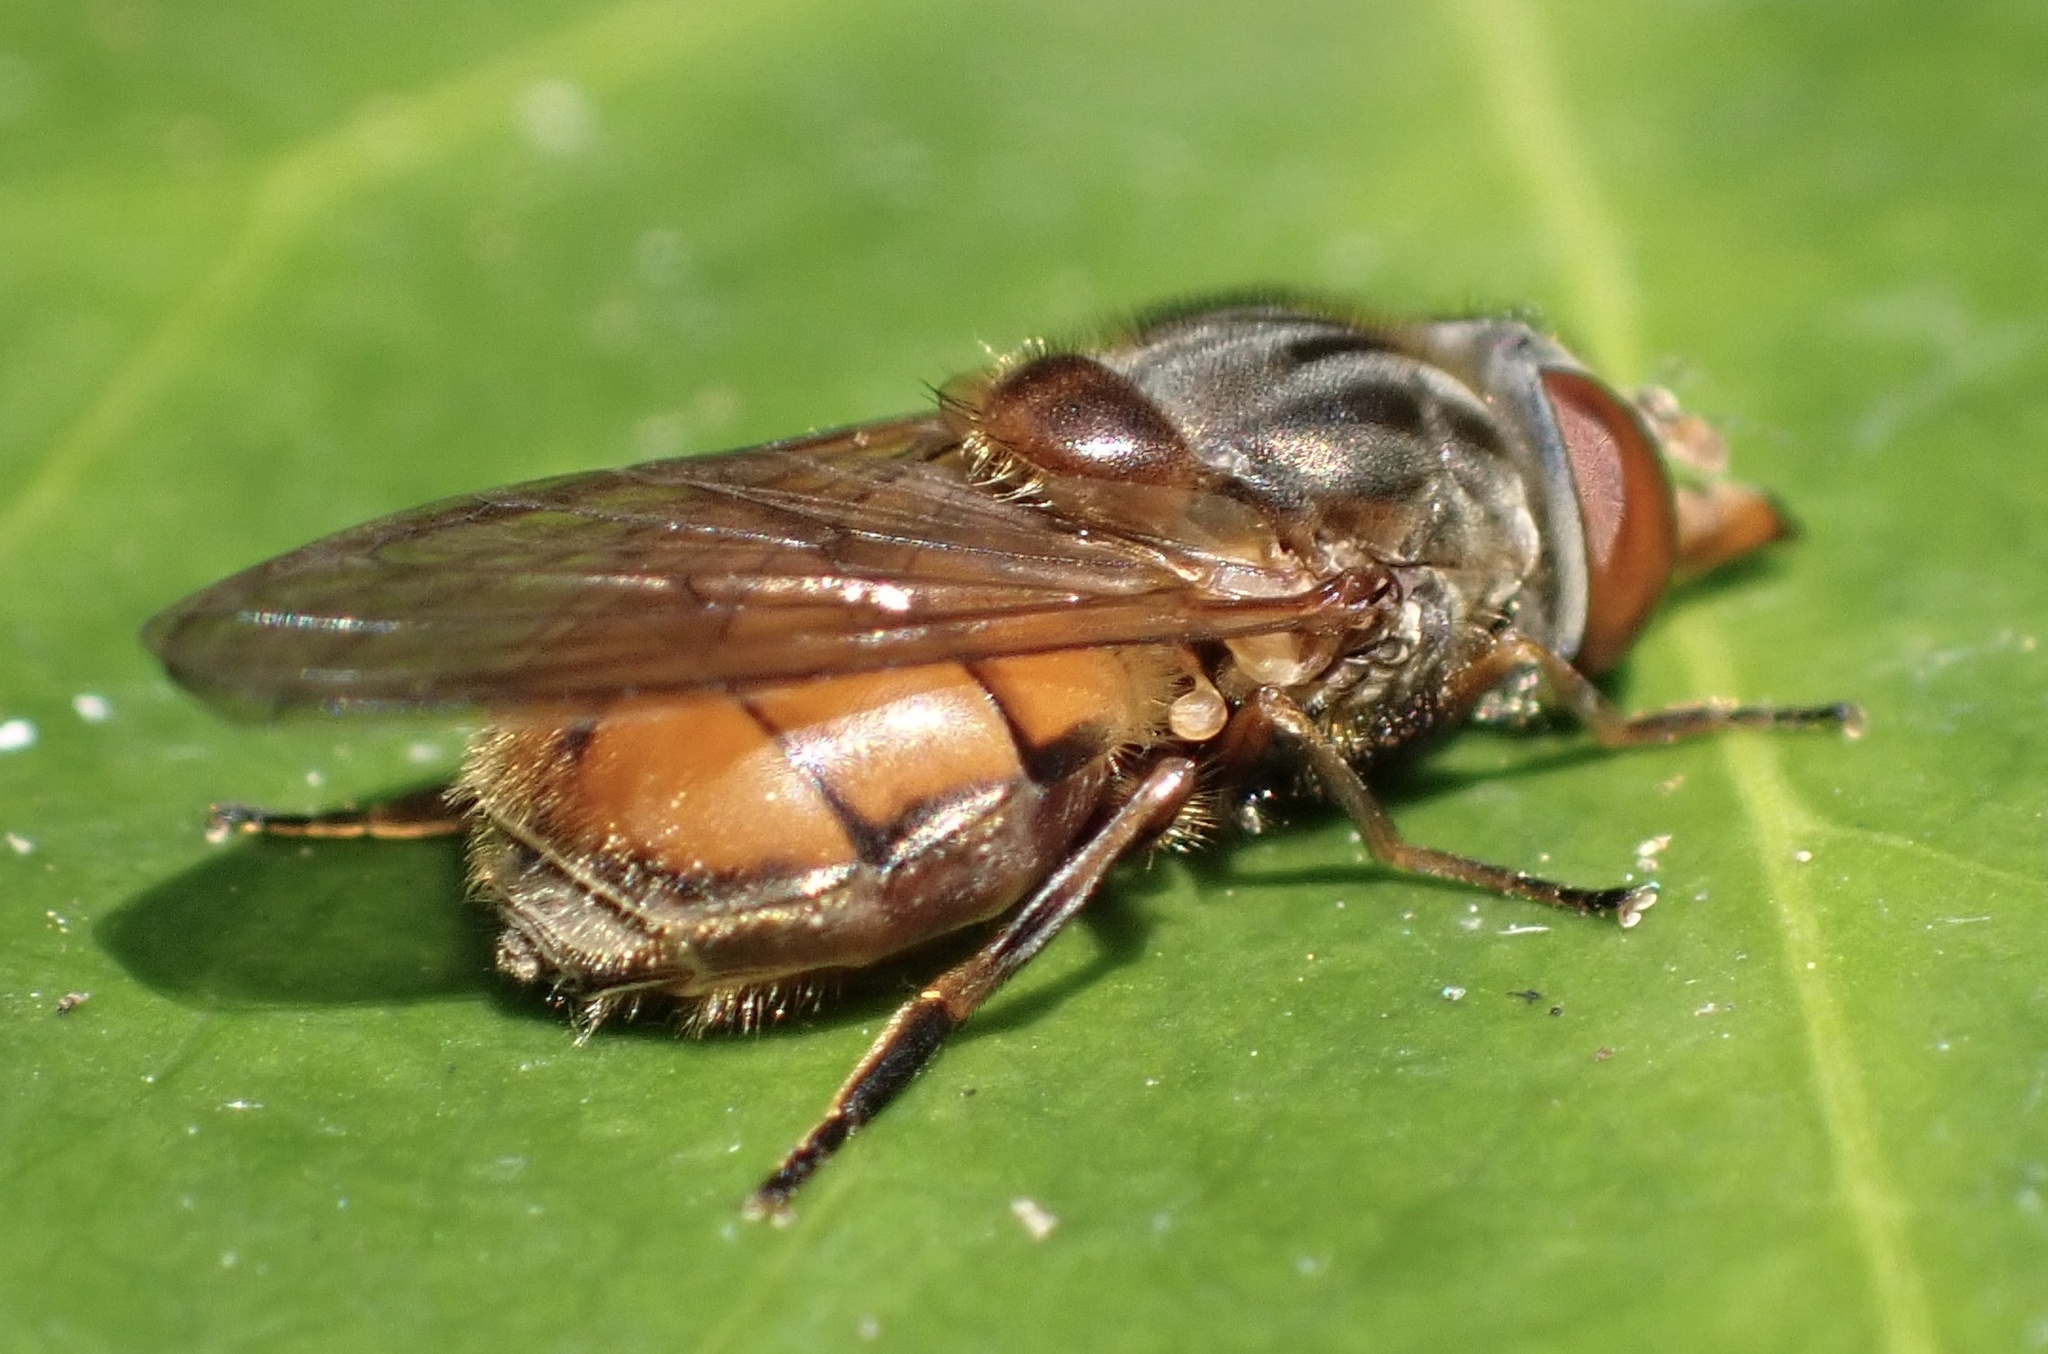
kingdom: Animalia
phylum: Arthropoda
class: Insecta
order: Diptera
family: Syrphidae
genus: Rhingia
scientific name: Rhingia campestris
